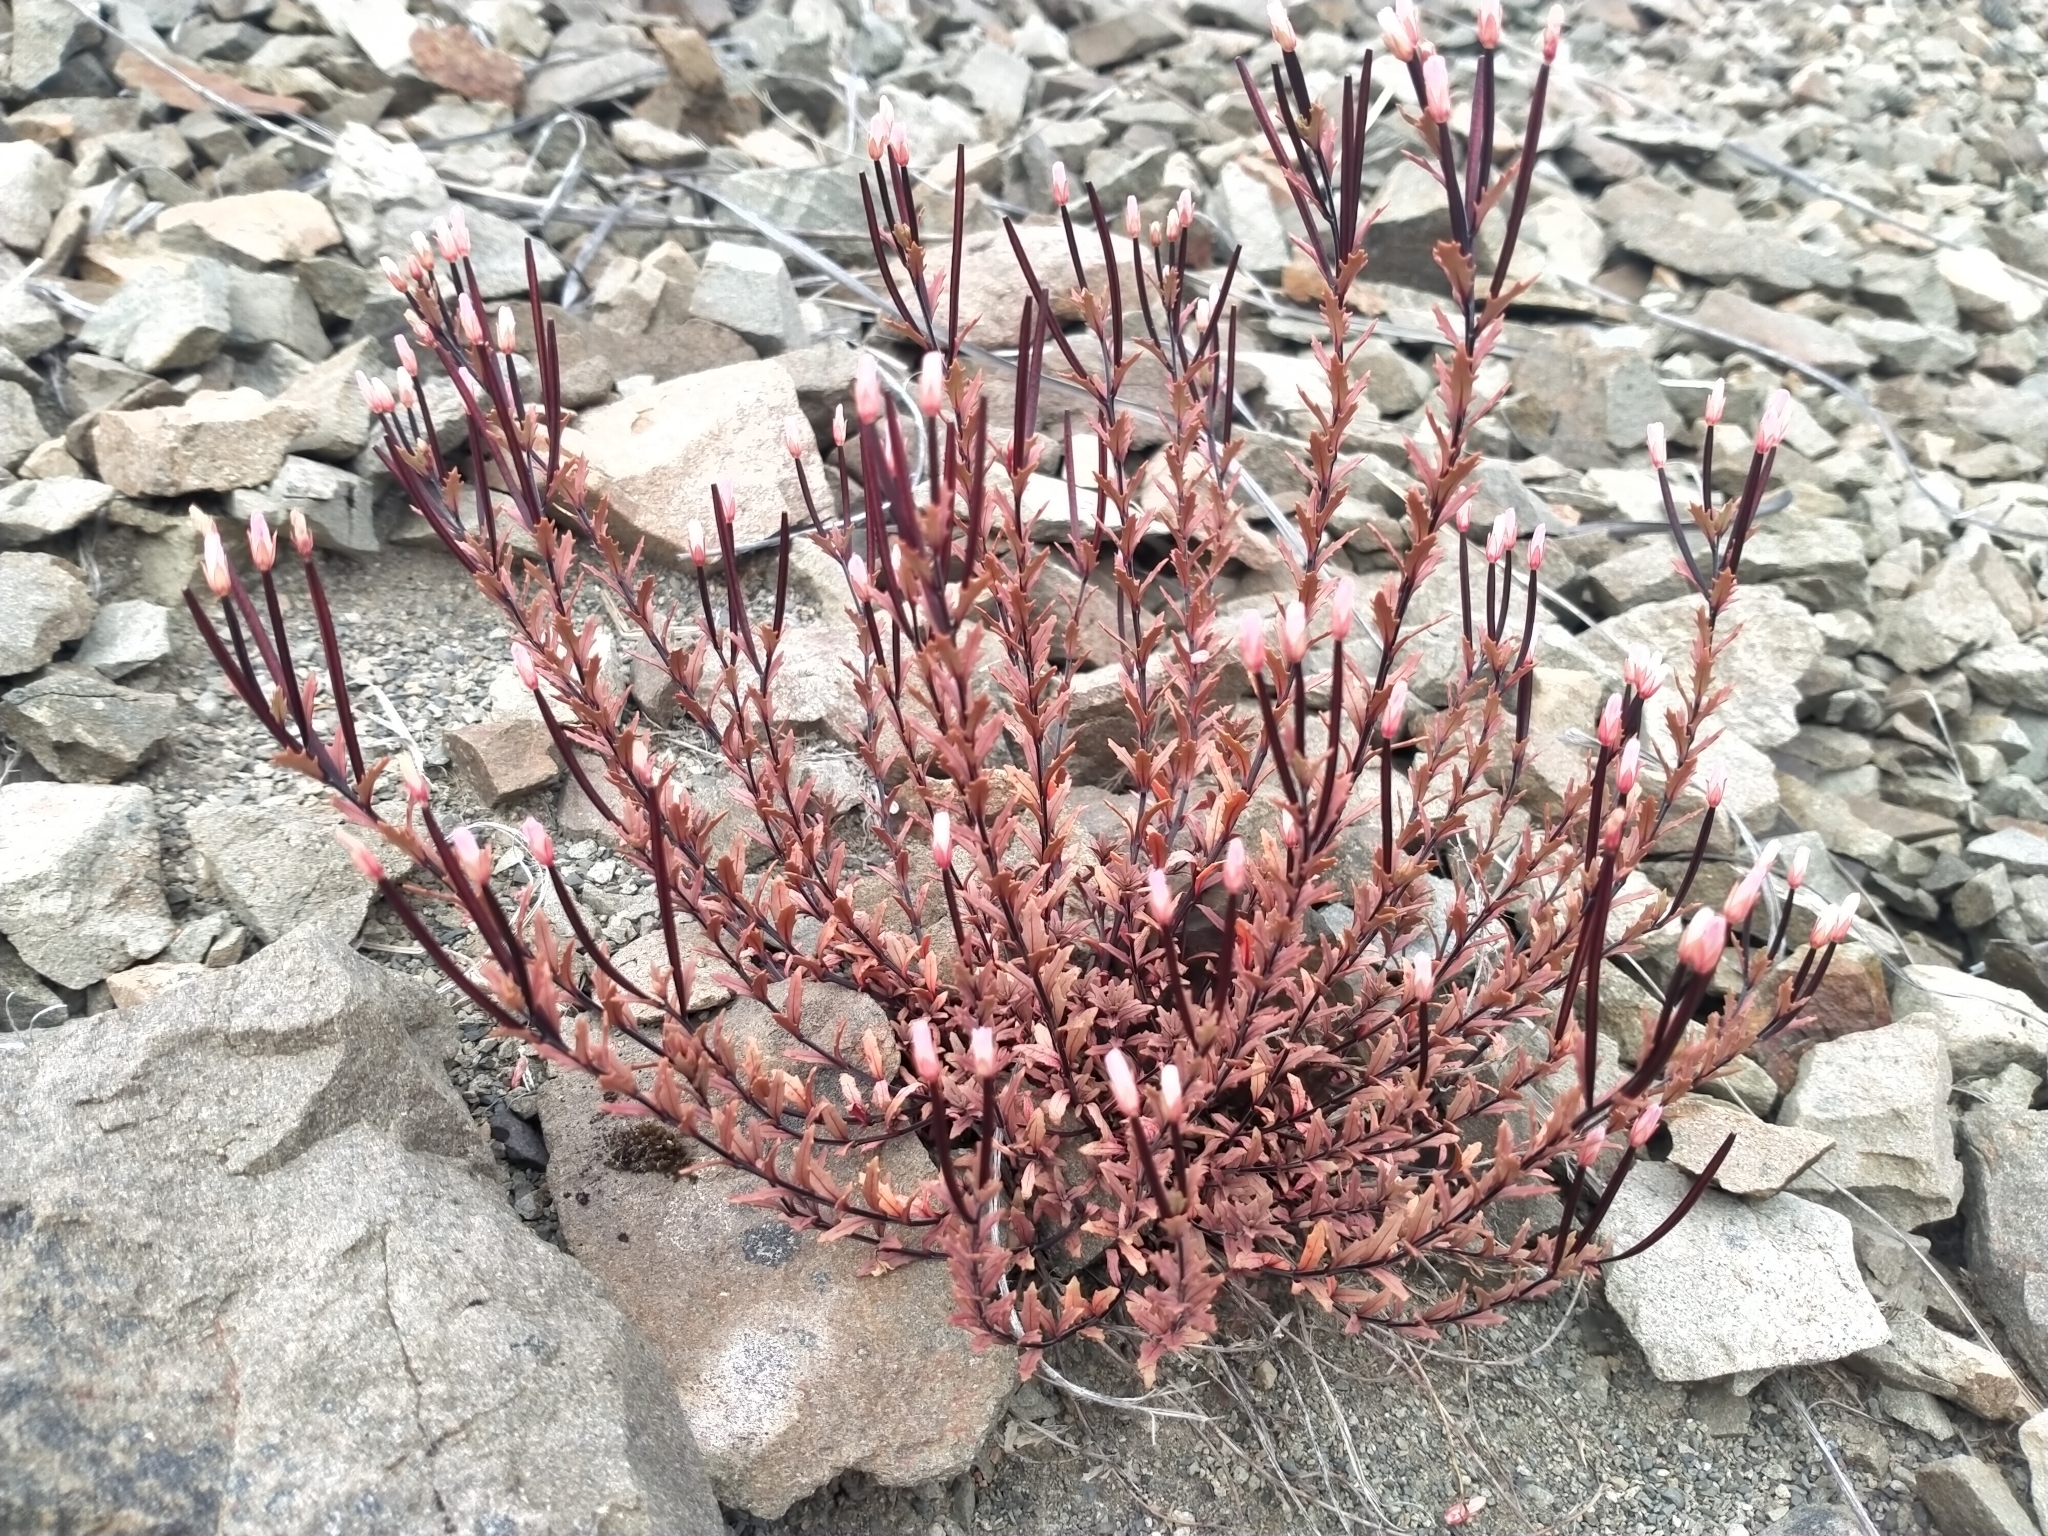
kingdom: Plantae
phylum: Tracheophyta
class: Magnoliopsida
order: Myrtales
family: Onagraceae
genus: Epilobium
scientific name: Epilobium melanocaulon
